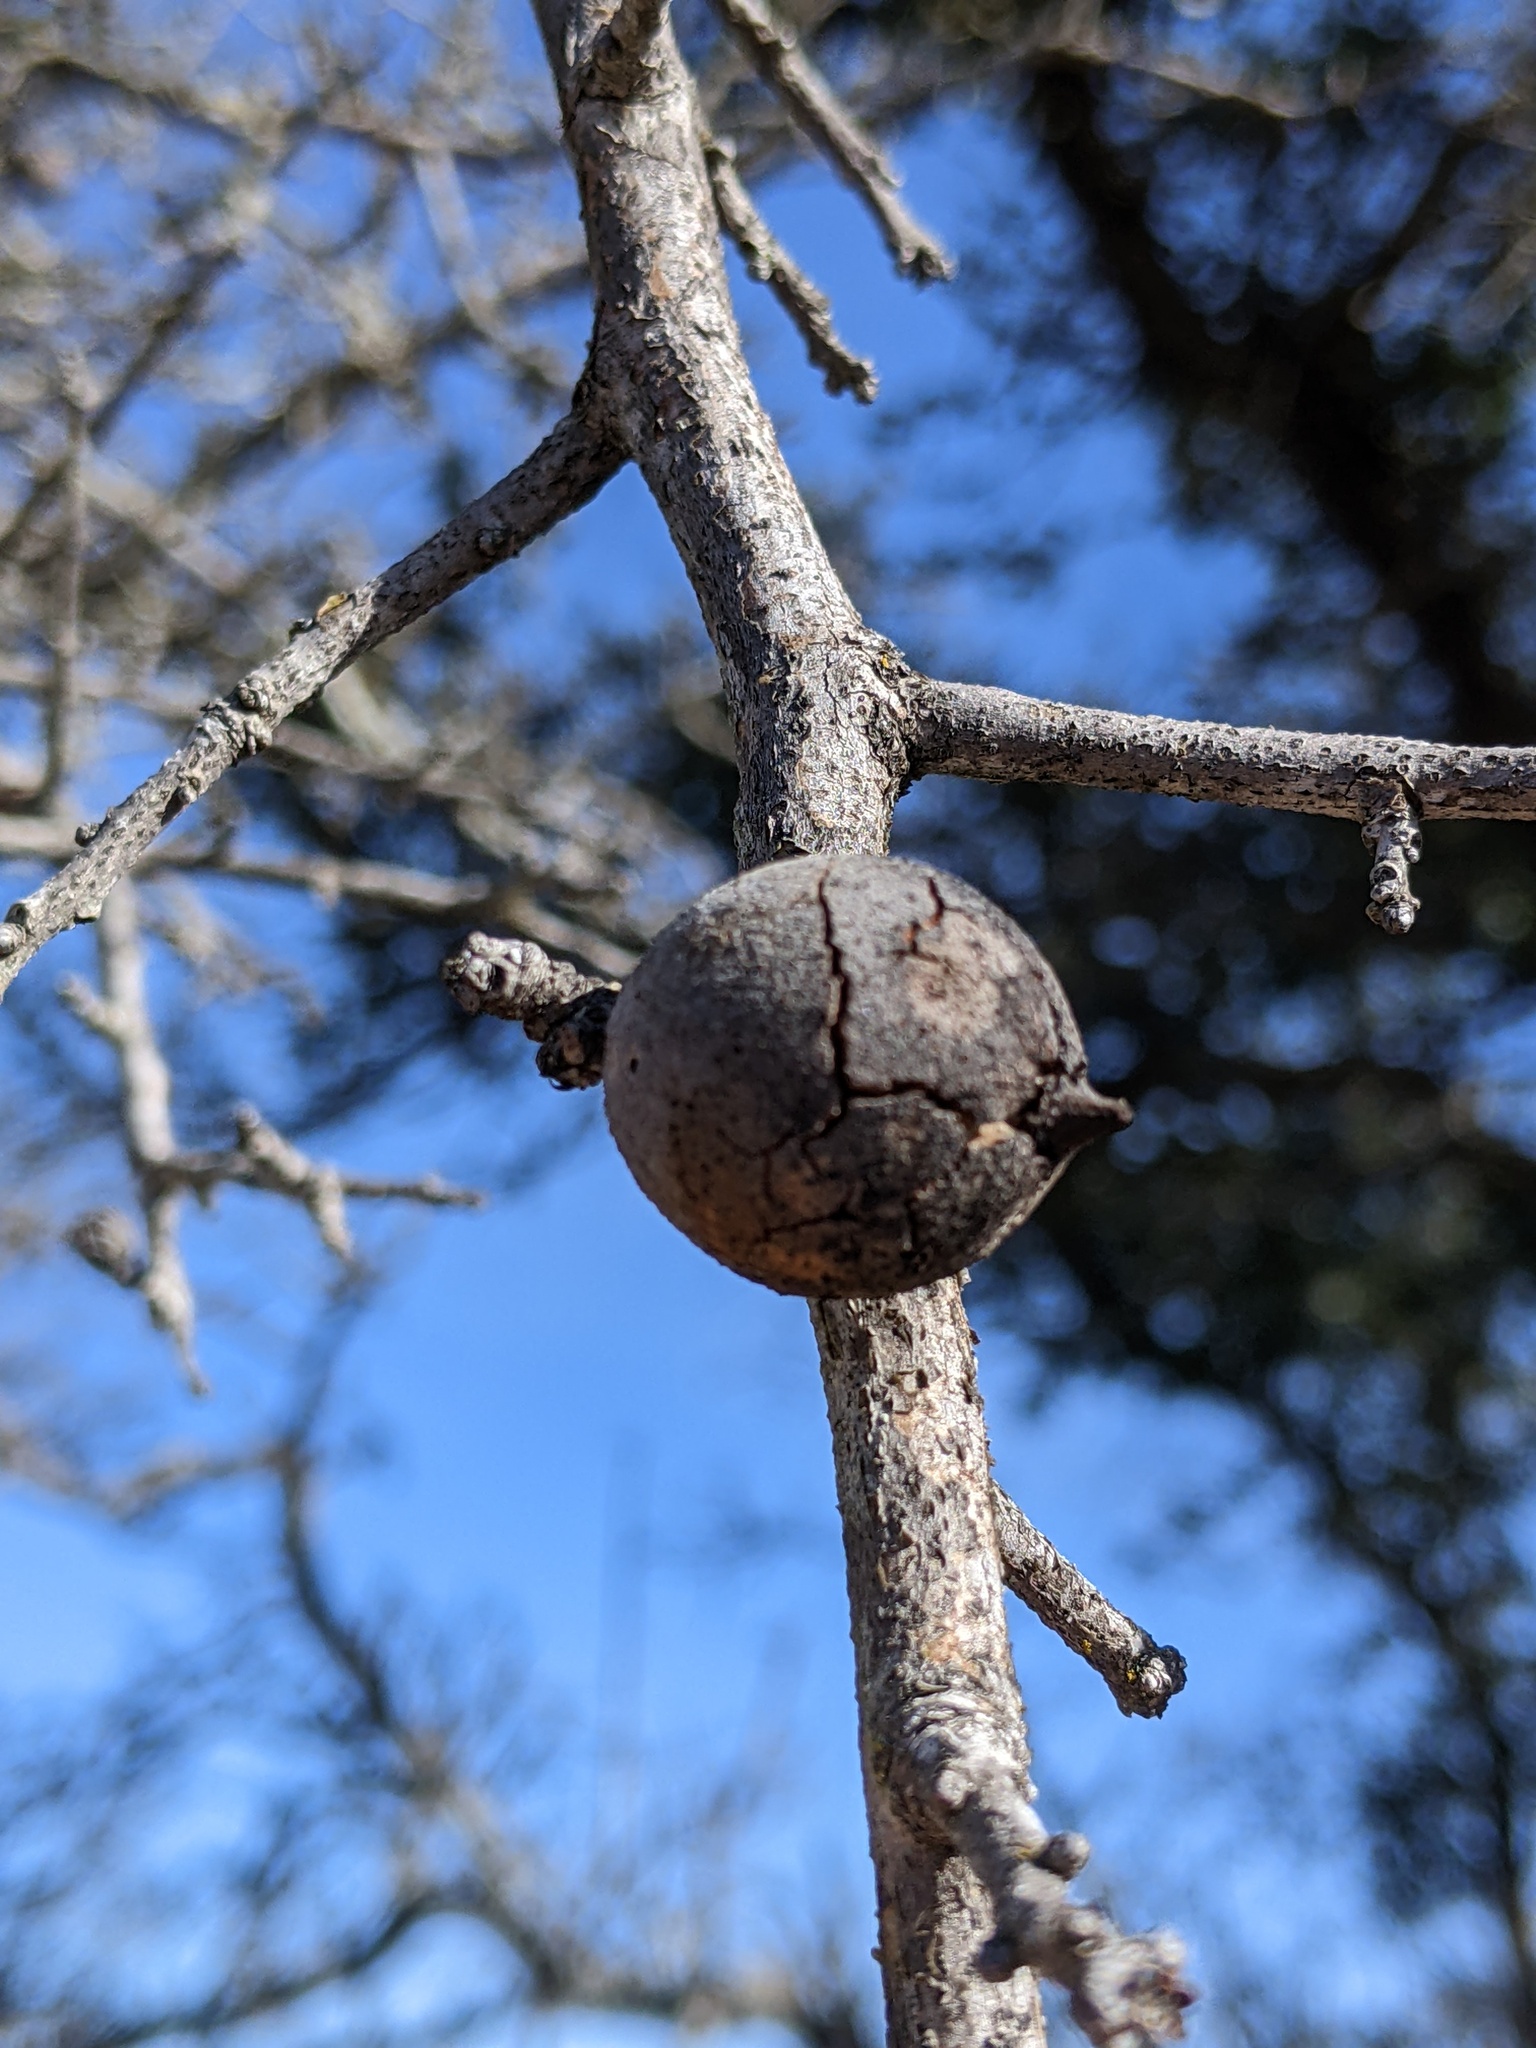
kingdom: Animalia
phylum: Arthropoda
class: Insecta
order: Hymenoptera
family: Cynipidae
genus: Disholcaspis
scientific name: Disholcaspis
